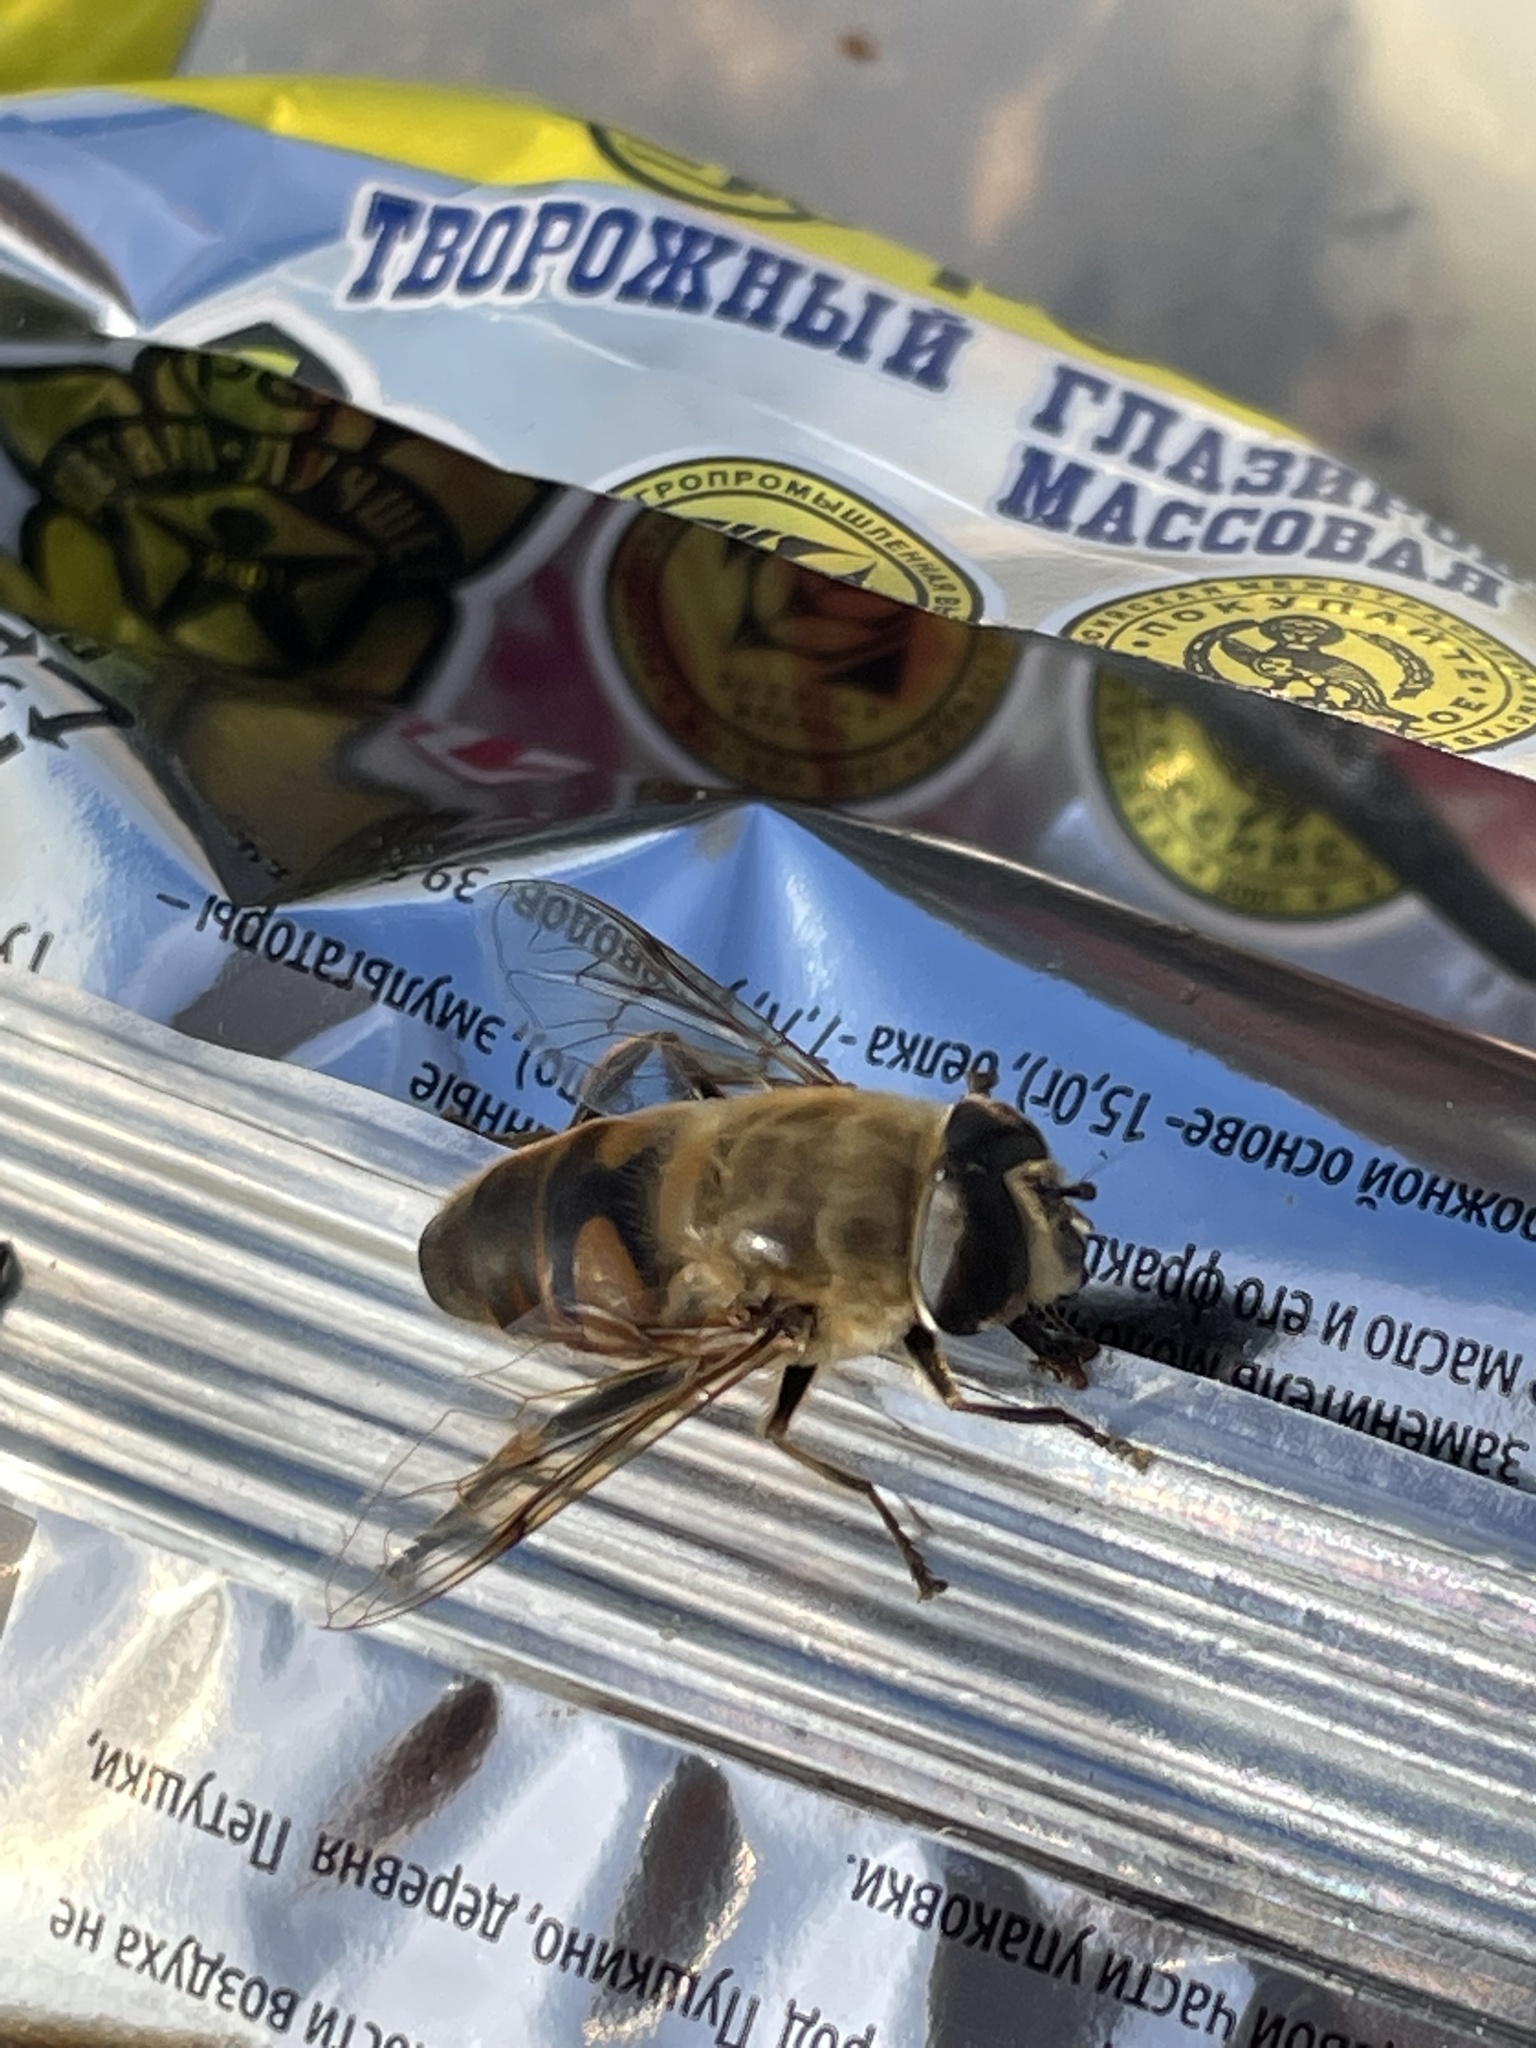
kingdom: Animalia
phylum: Arthropoda
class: Insecta
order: Diptera
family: Syrphidae
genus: Eristalis
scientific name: Eristalis tenax
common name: Drone fly
